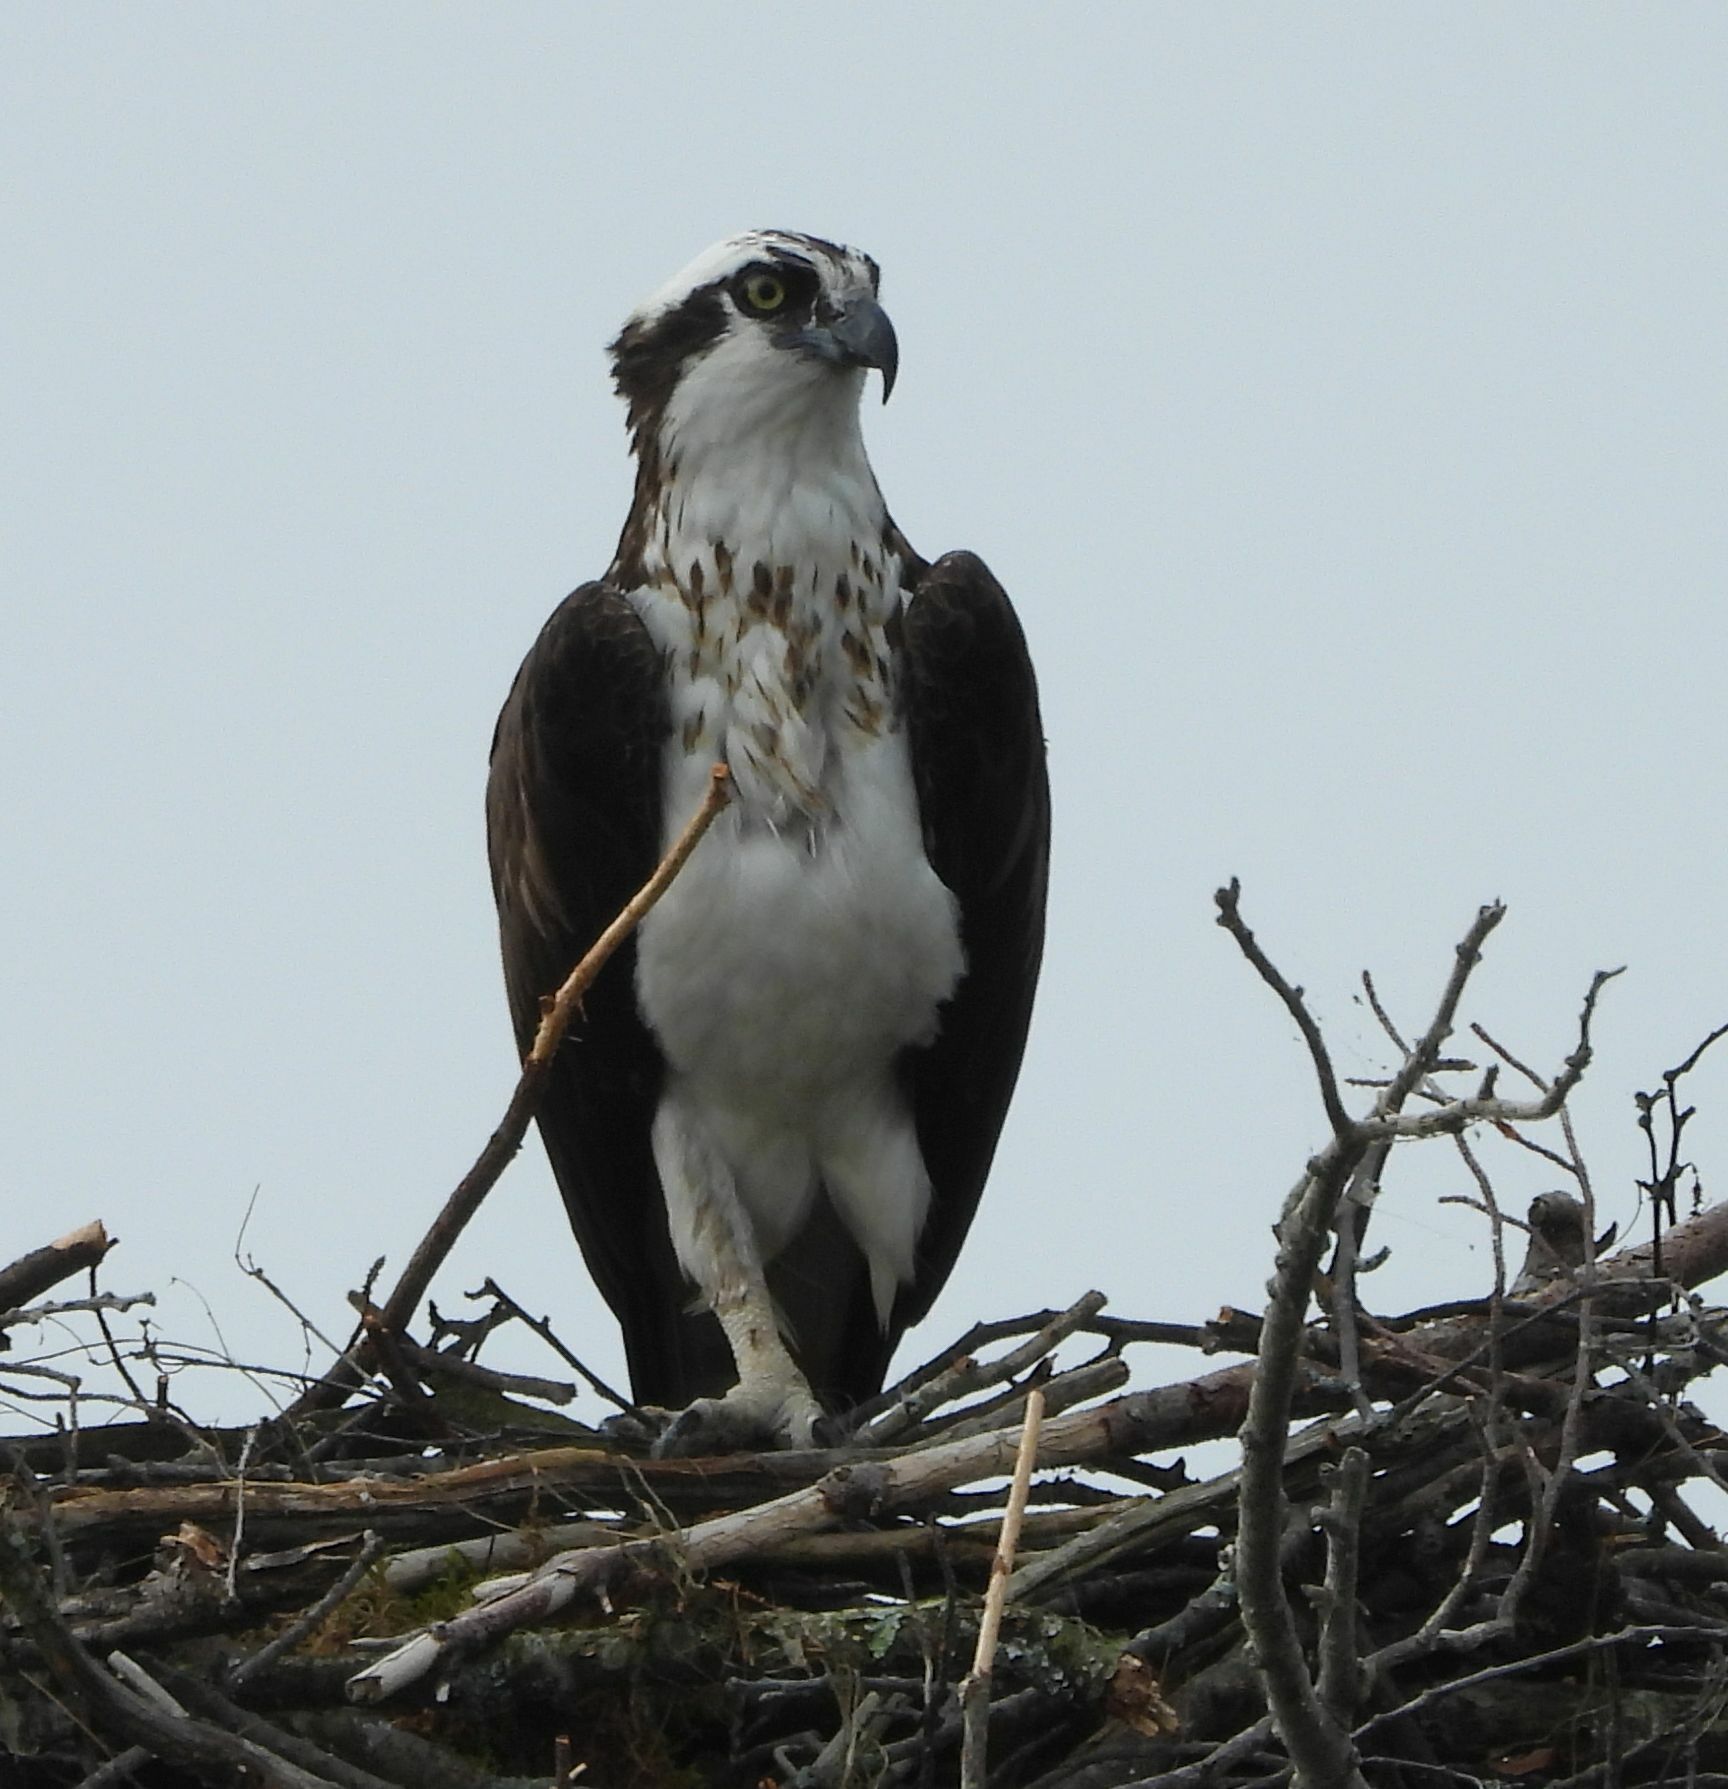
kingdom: Animalia
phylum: Chordata
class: Aves
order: Accipitriformes
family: Pandionidae
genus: Pandion
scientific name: Pandion haliaetus
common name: Osprey
